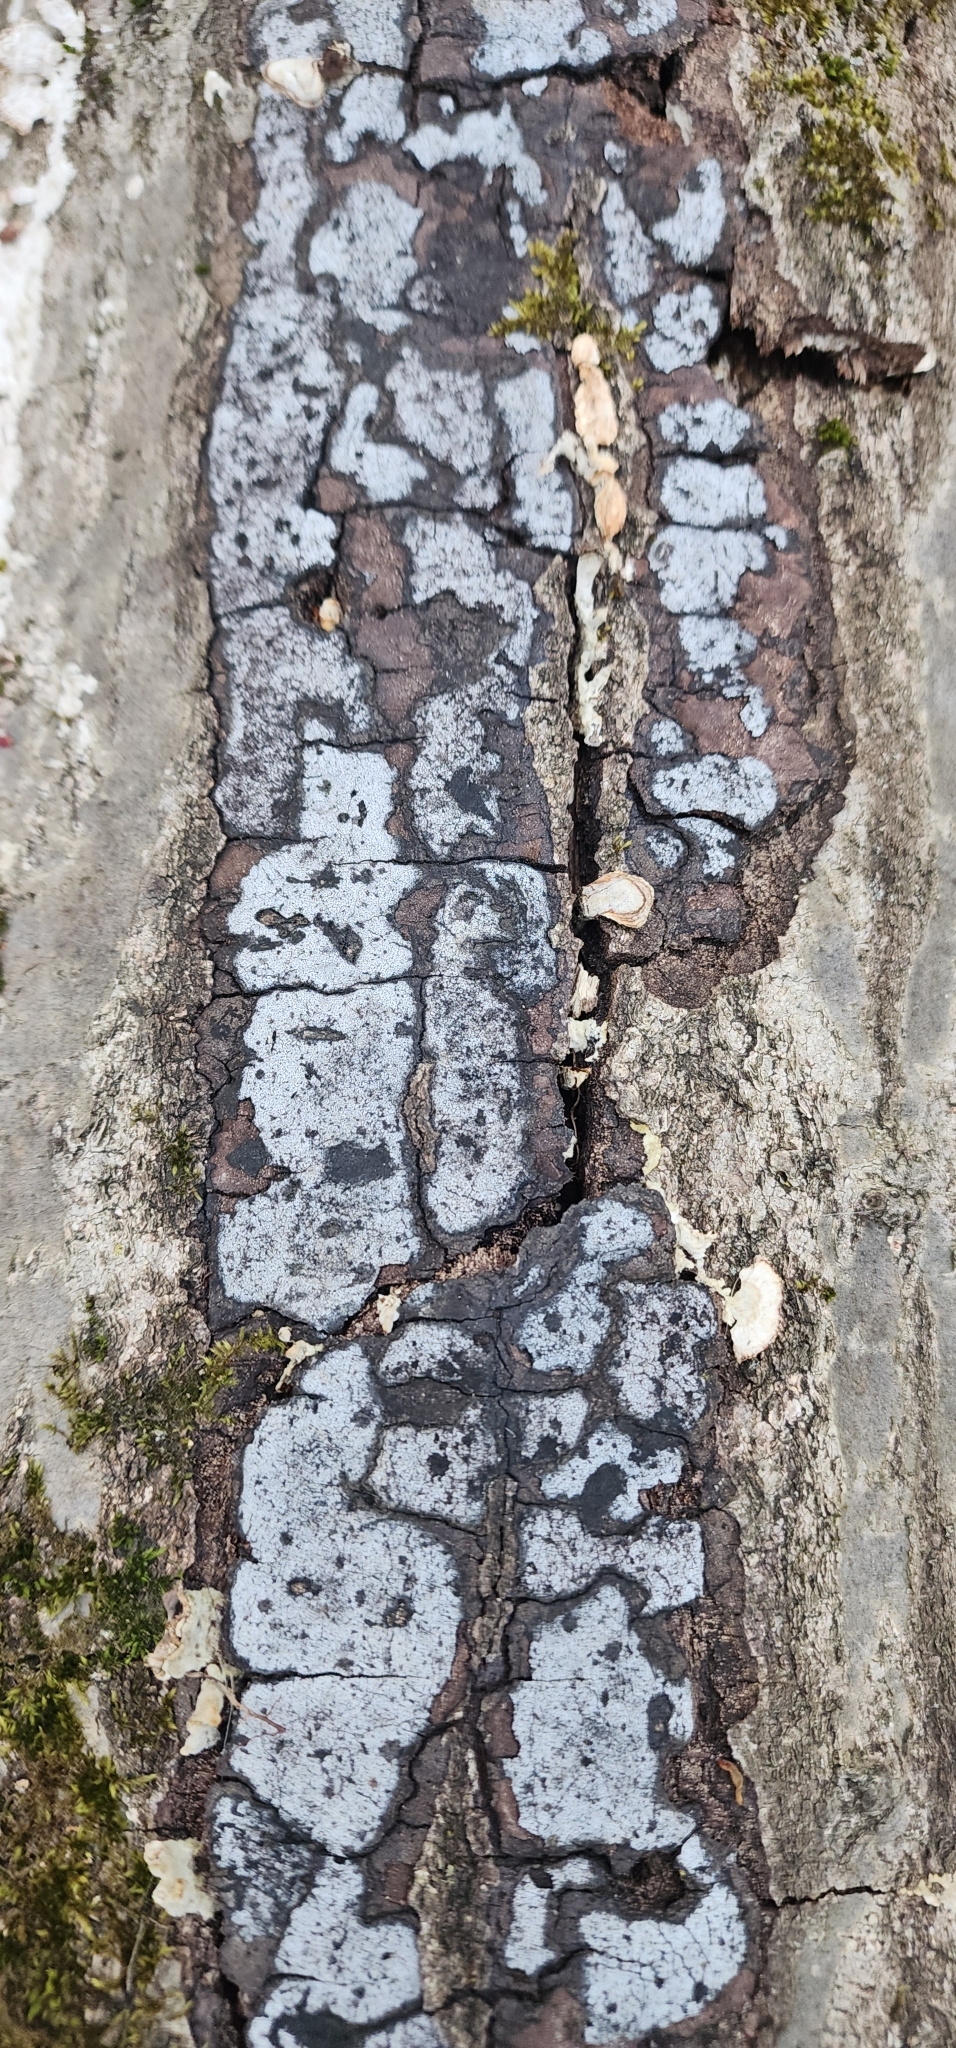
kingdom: Fungi
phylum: Ascomycota
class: Sordariomycetes
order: Xylariales
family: Graphostromataceae
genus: Biscogniauxia
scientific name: Biscogniauxia atropunctata
